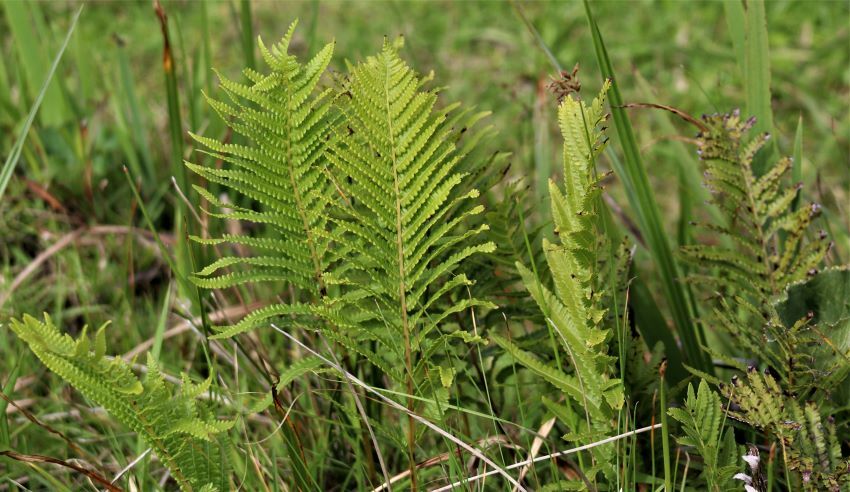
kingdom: Plantae
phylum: Tracheophyta
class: Polypodiopsida
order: Polypodiales
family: Thelypteridaceae
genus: Cyclosorus
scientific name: Cyclosorus interruptus
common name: Neke fern
